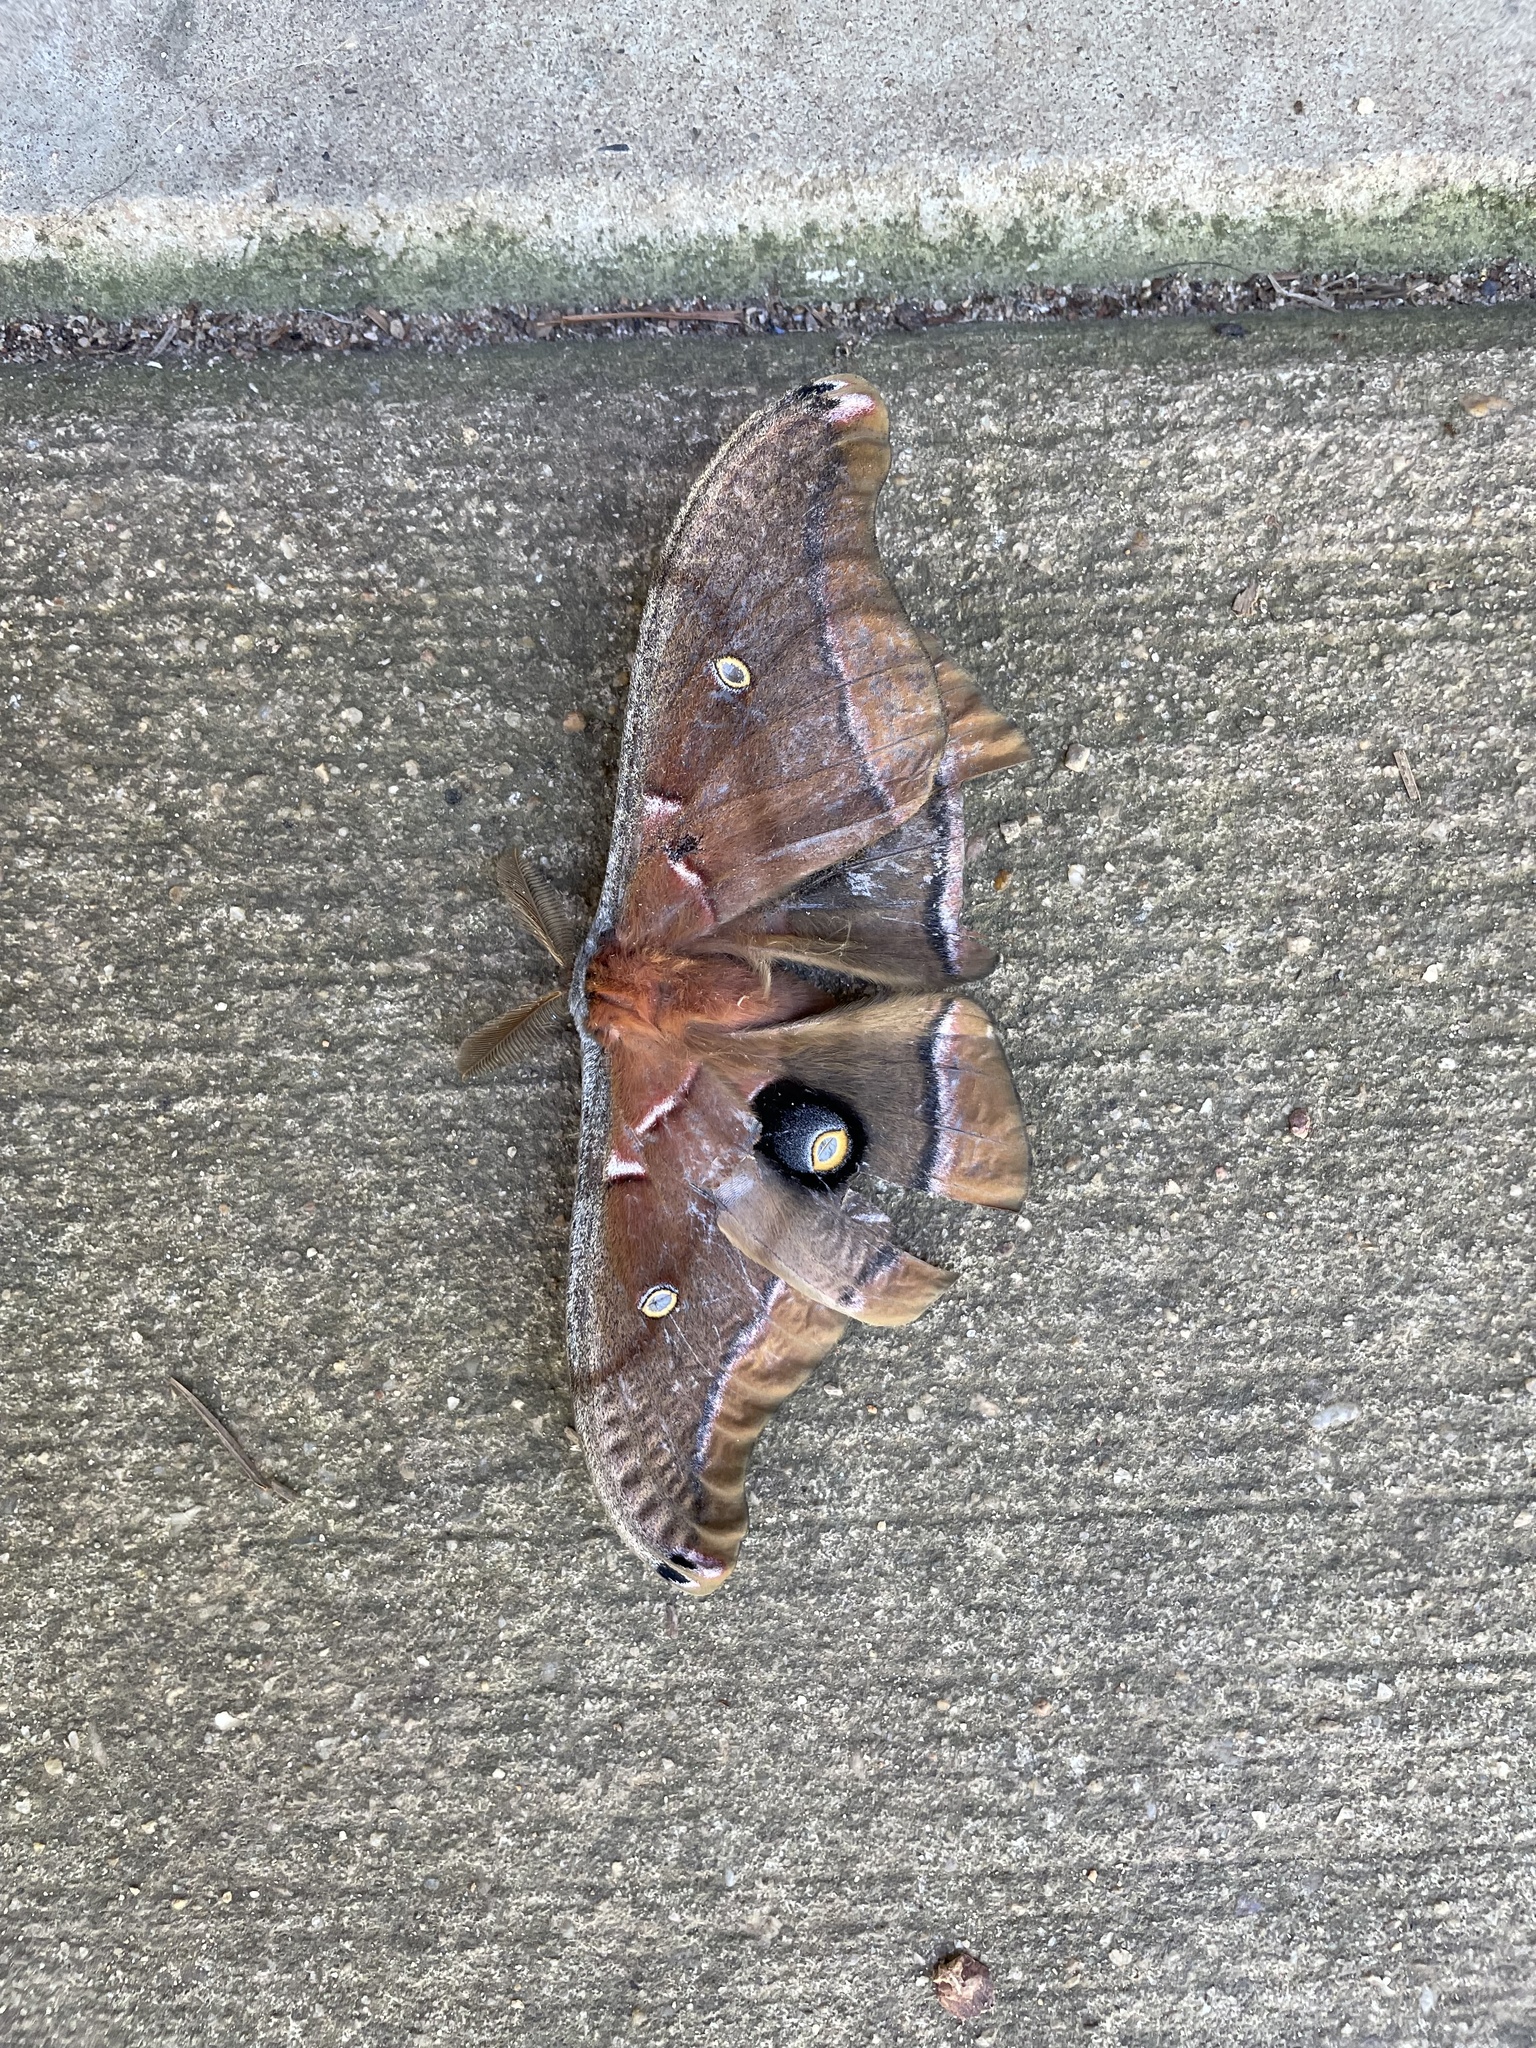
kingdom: Animalia
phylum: Arthropoda
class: Insecta
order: Lepidoptera
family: Saturniidae
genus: Antheraea
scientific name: Antheraea polyphemus
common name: Polyphemus moth
